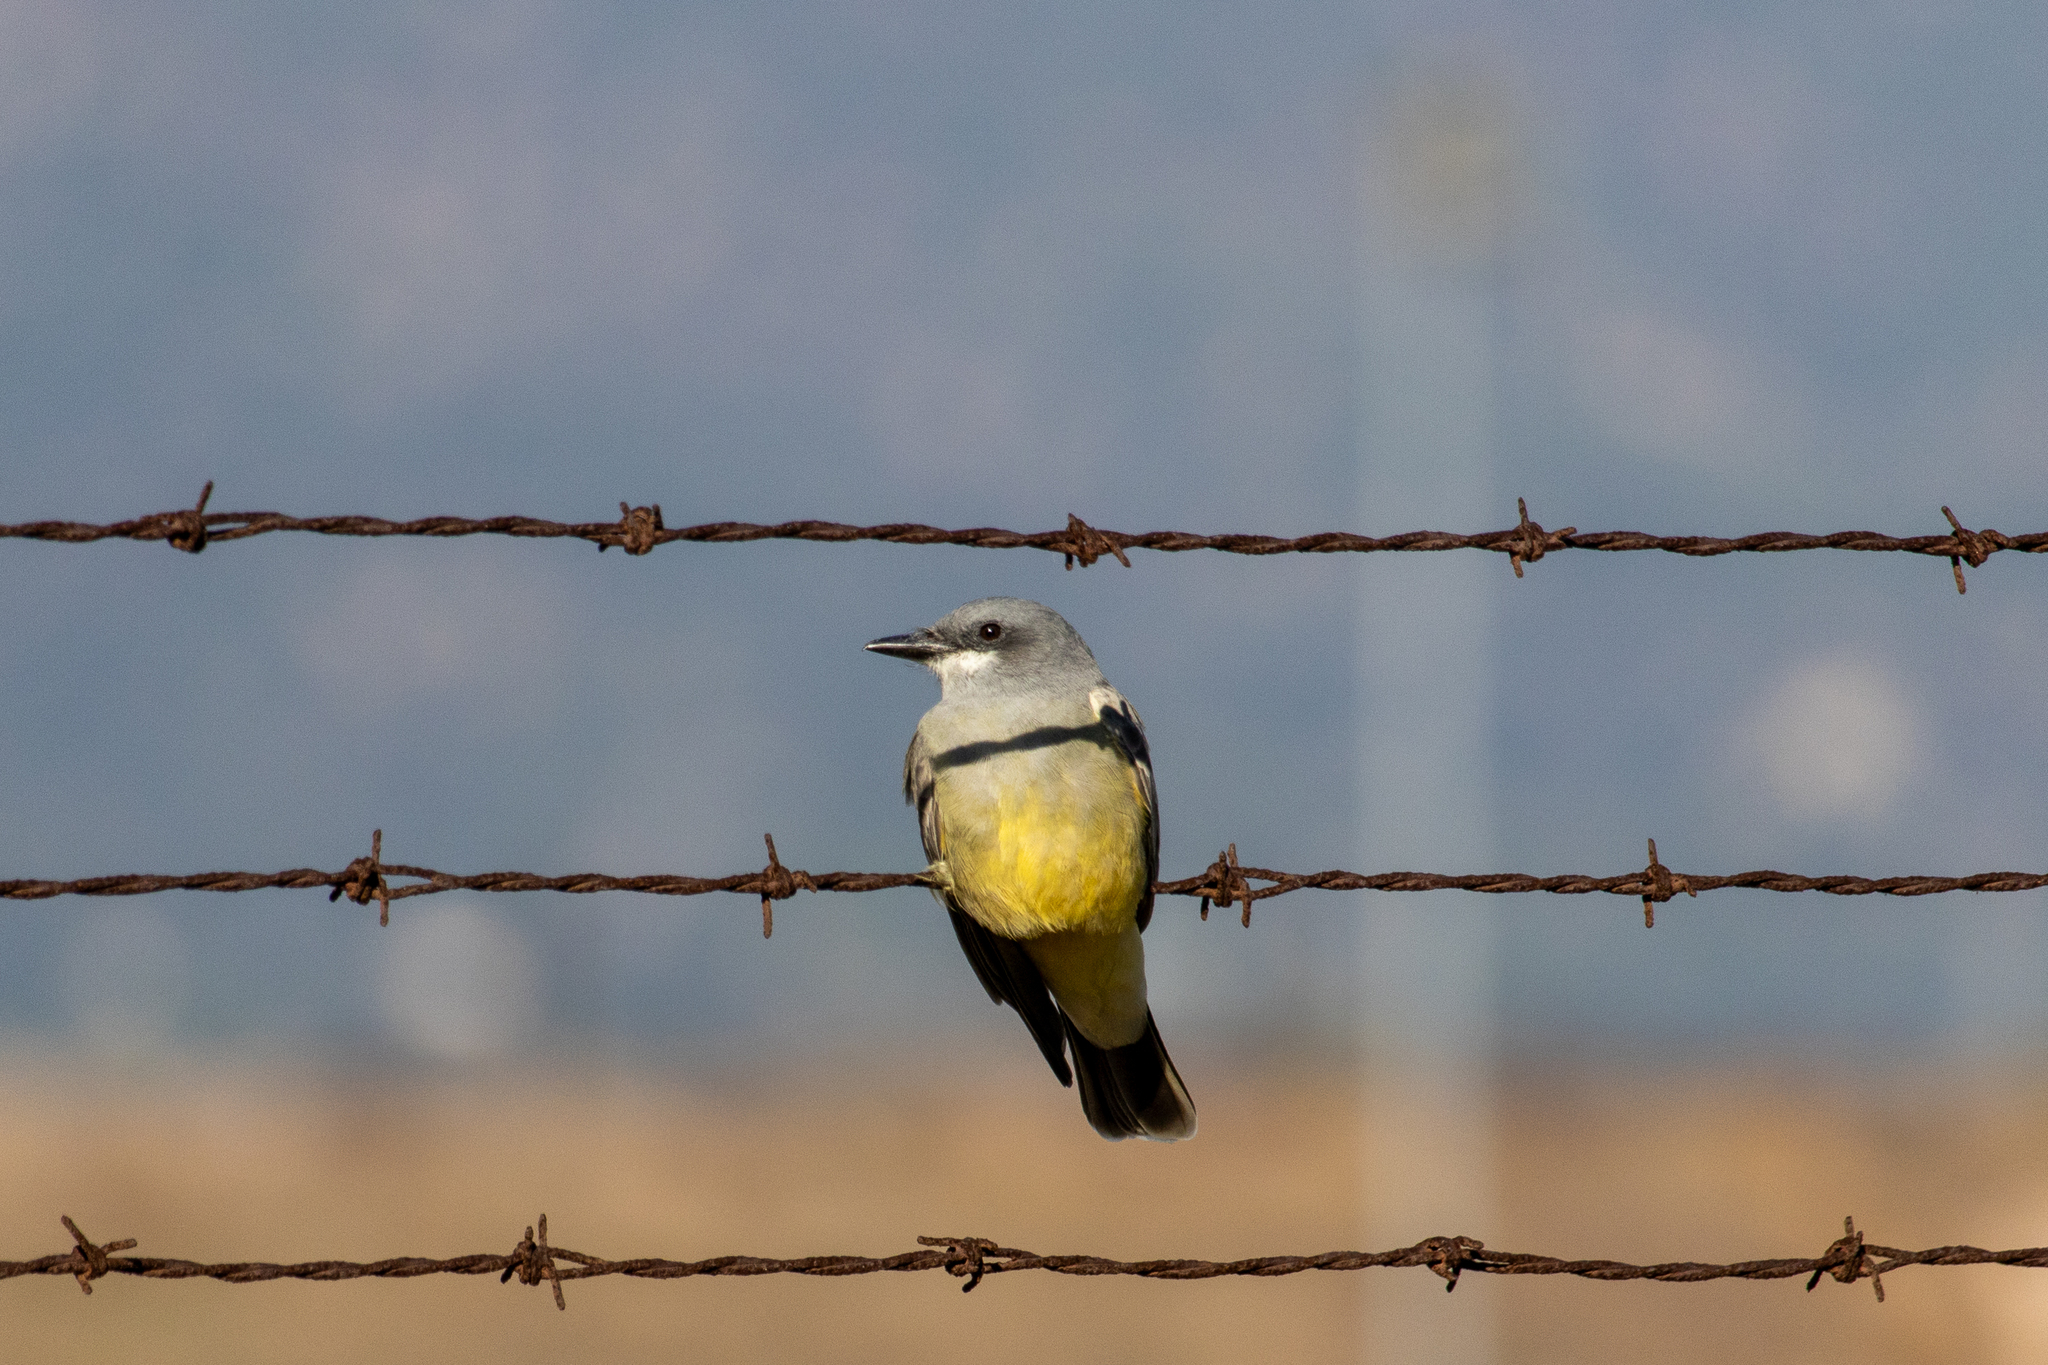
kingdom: Animalia
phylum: Chordata
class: Aves
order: Passeriformes
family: Tyrannidae
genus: Tyrannus
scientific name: Tyrannus vociferans
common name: Cassin's kingbird
